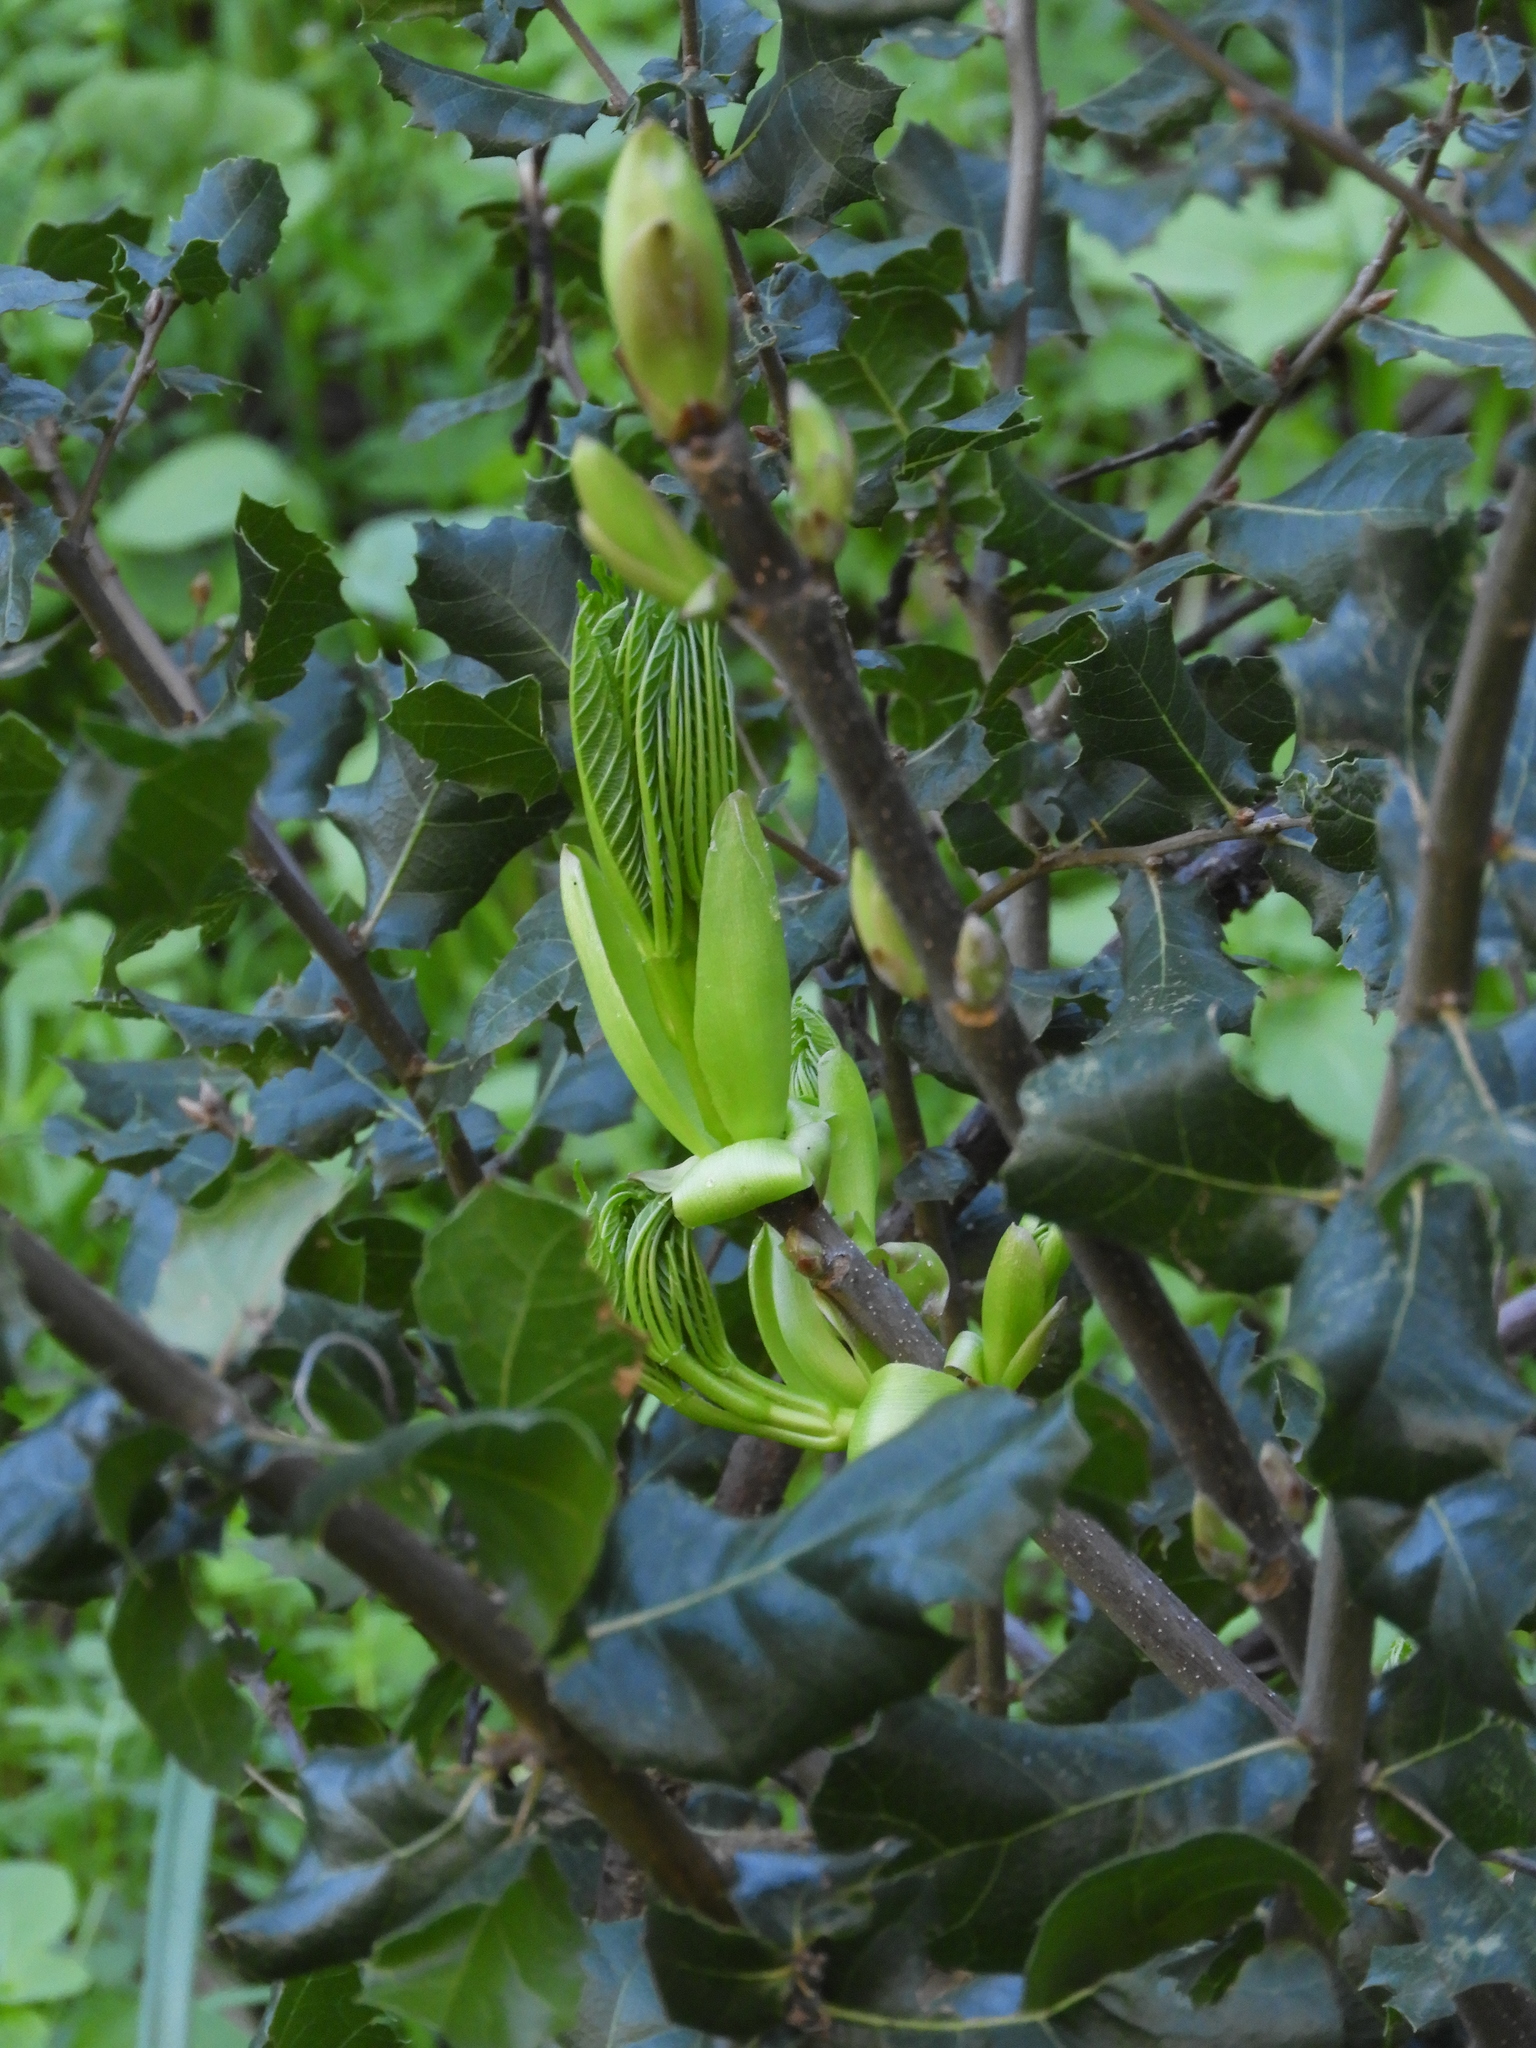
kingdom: Plantae
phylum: Tracheophyta
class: Magnoliopsida
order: Sapindales
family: Sapindaceae
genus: Aesculus
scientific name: Aesculus californica
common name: California buckeye
